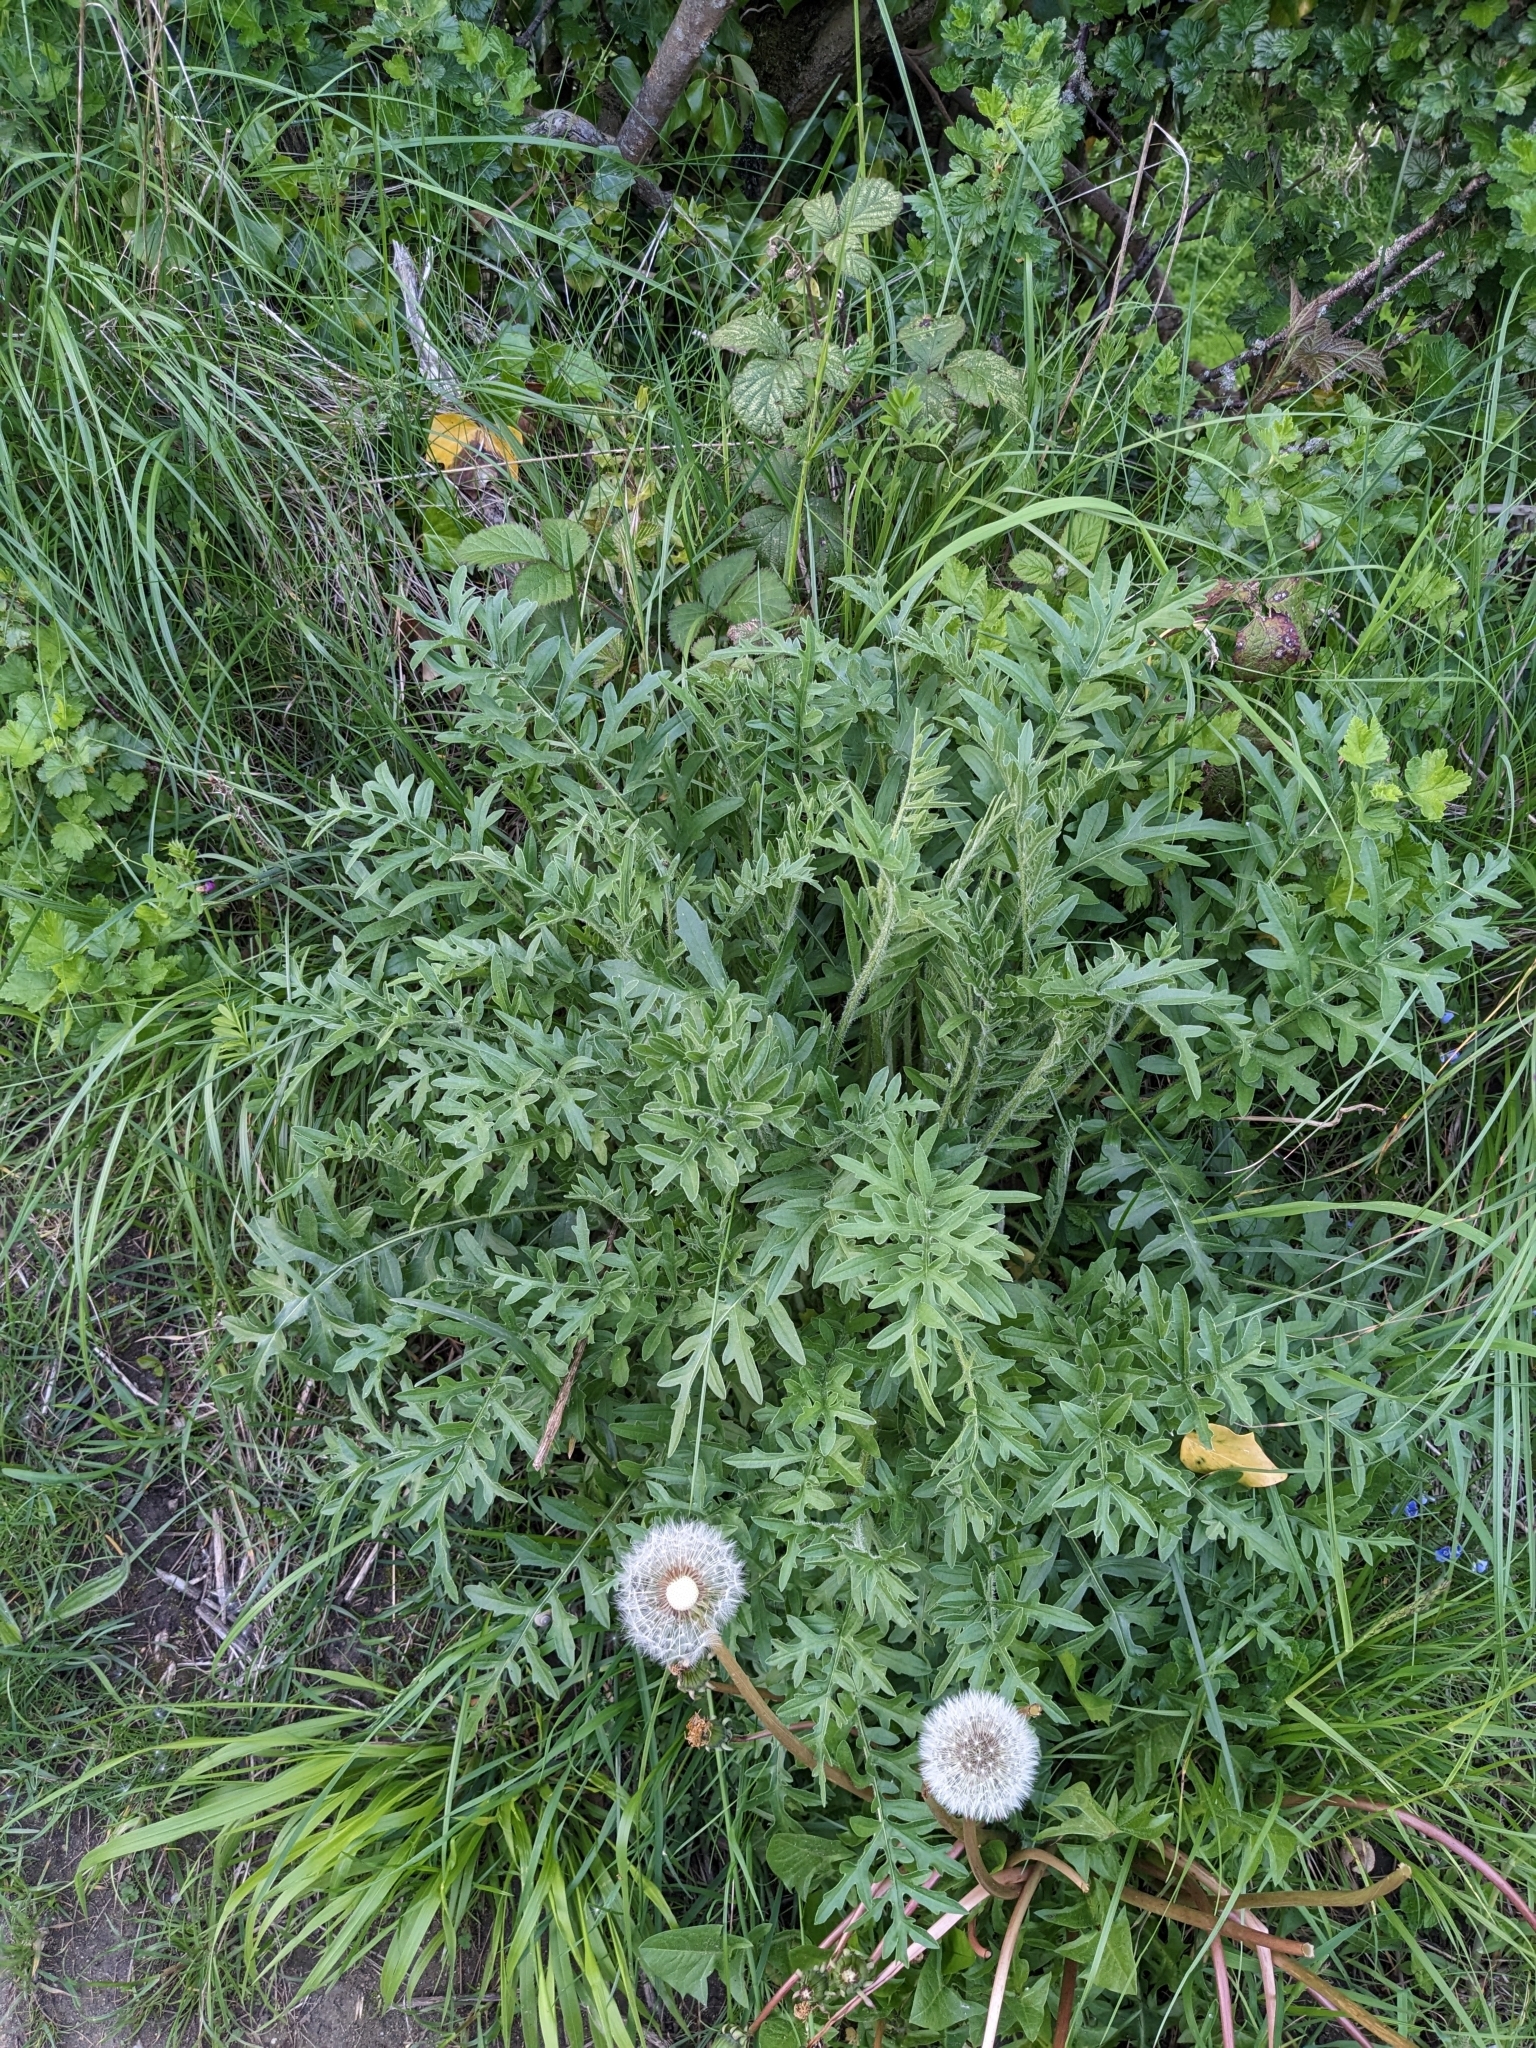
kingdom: Plantae
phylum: Tracheophyta
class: Magnoliopsida
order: Asterales
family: Asteraceae
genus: Centaurea
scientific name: Centaurea scabiosa
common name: Greater knapweed
